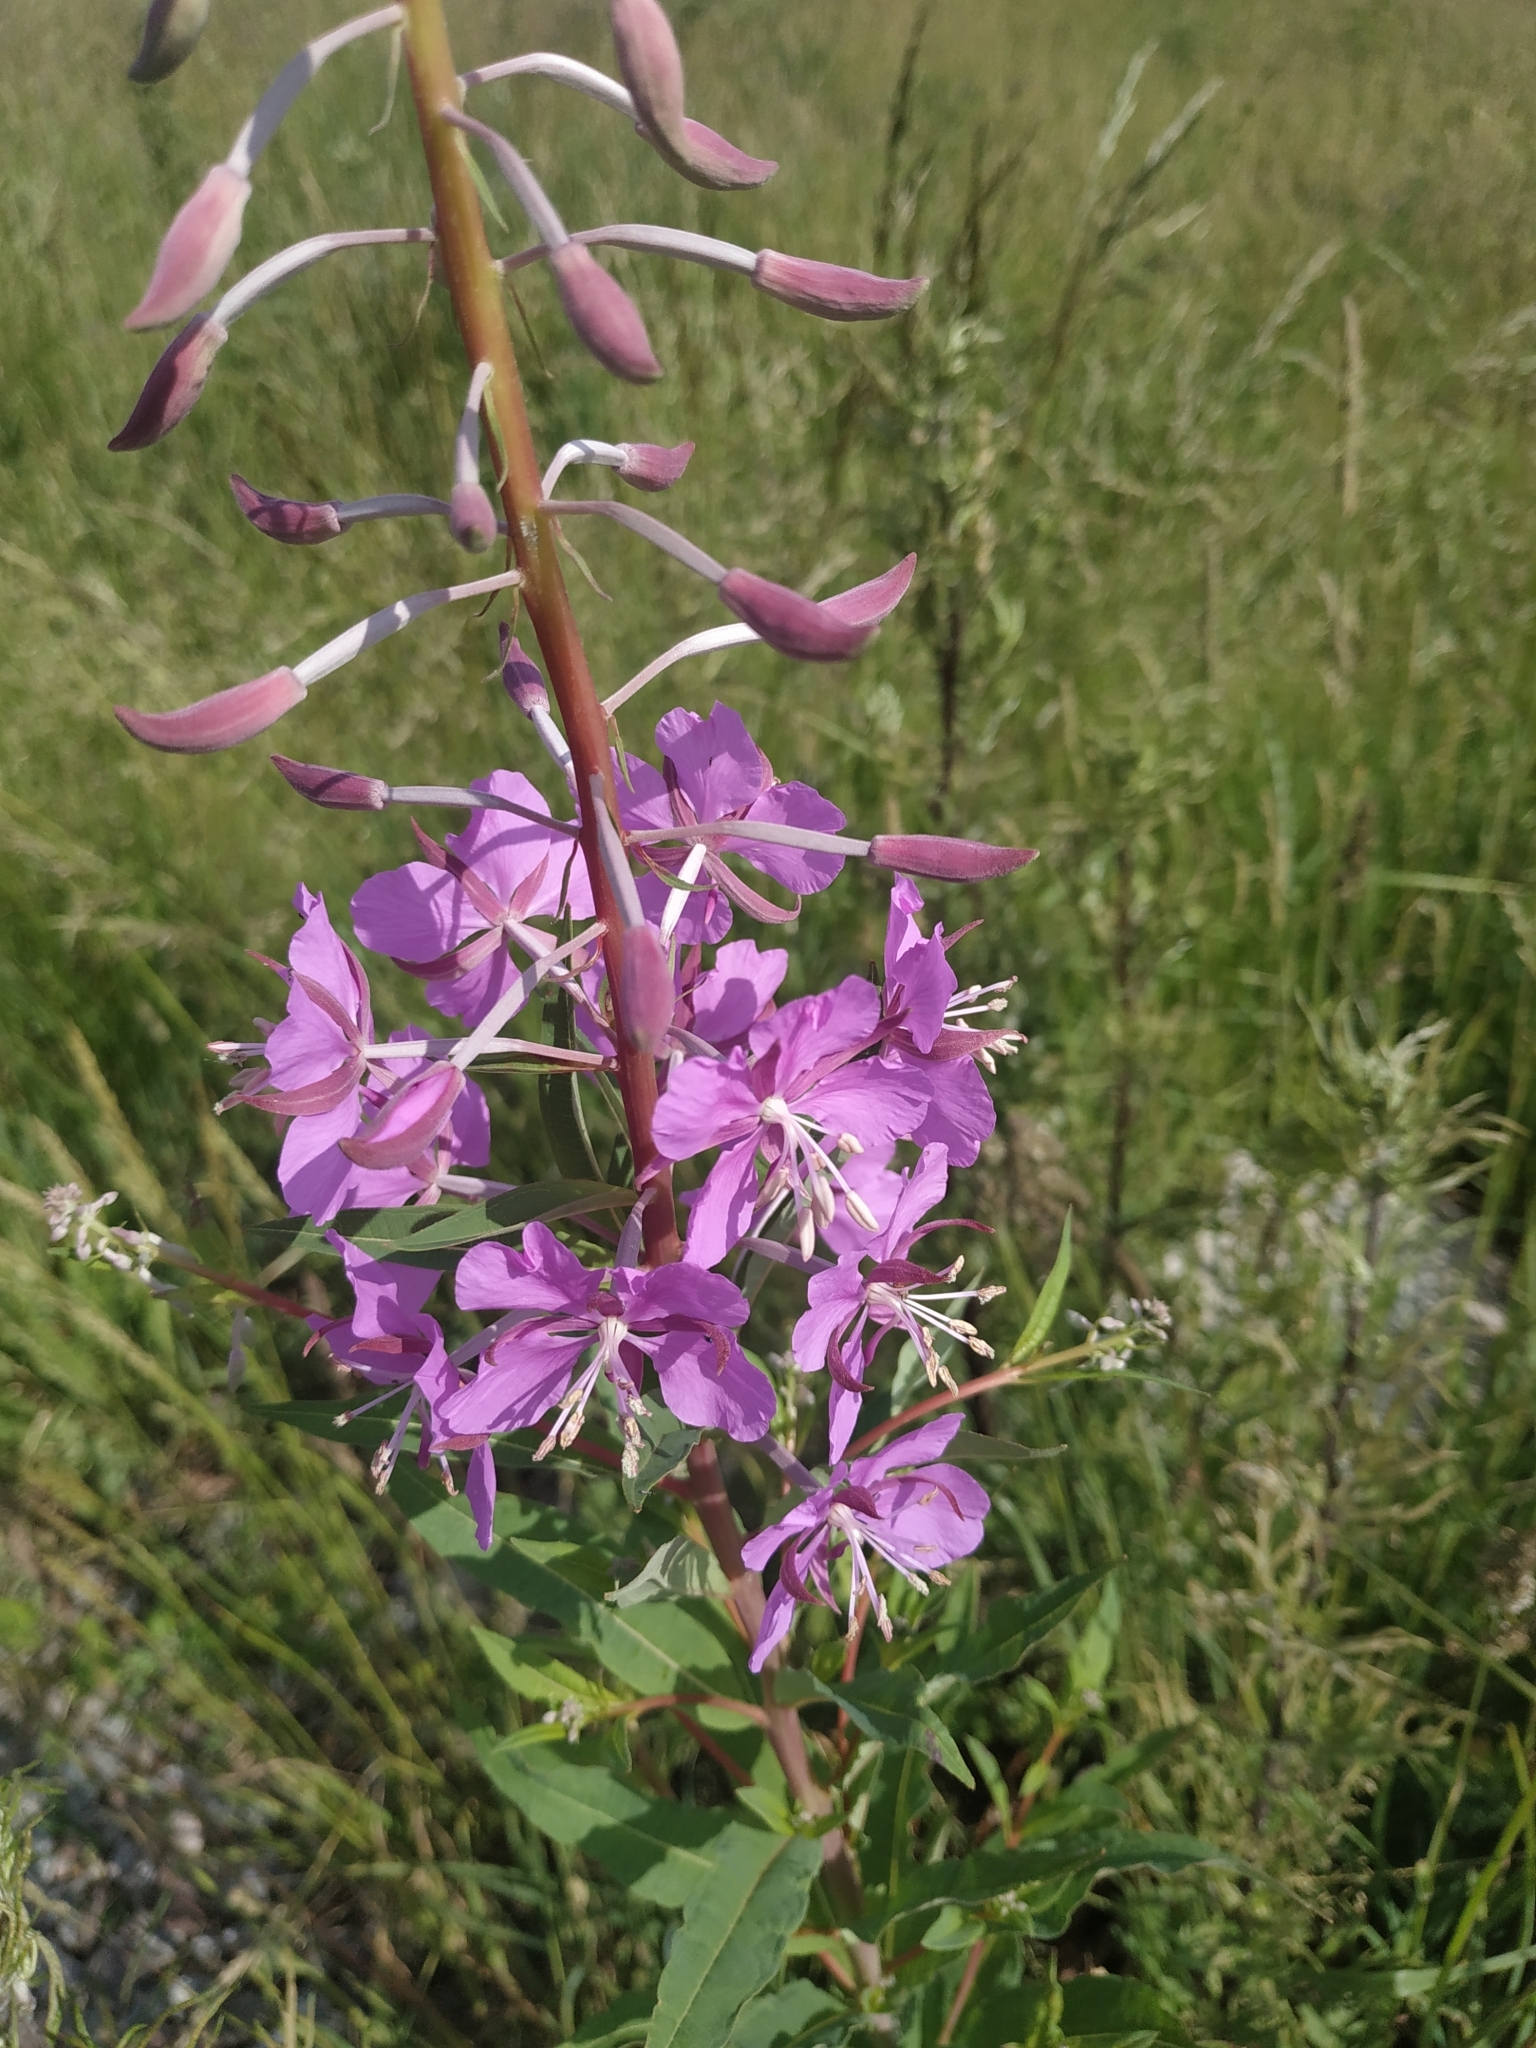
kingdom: Plantae
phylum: Tracheophyta
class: Magnoliopsida
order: Myrtales
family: Onagraceae
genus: Chamaenerion
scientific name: Chamaenerion angustifolium
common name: Fireweed
